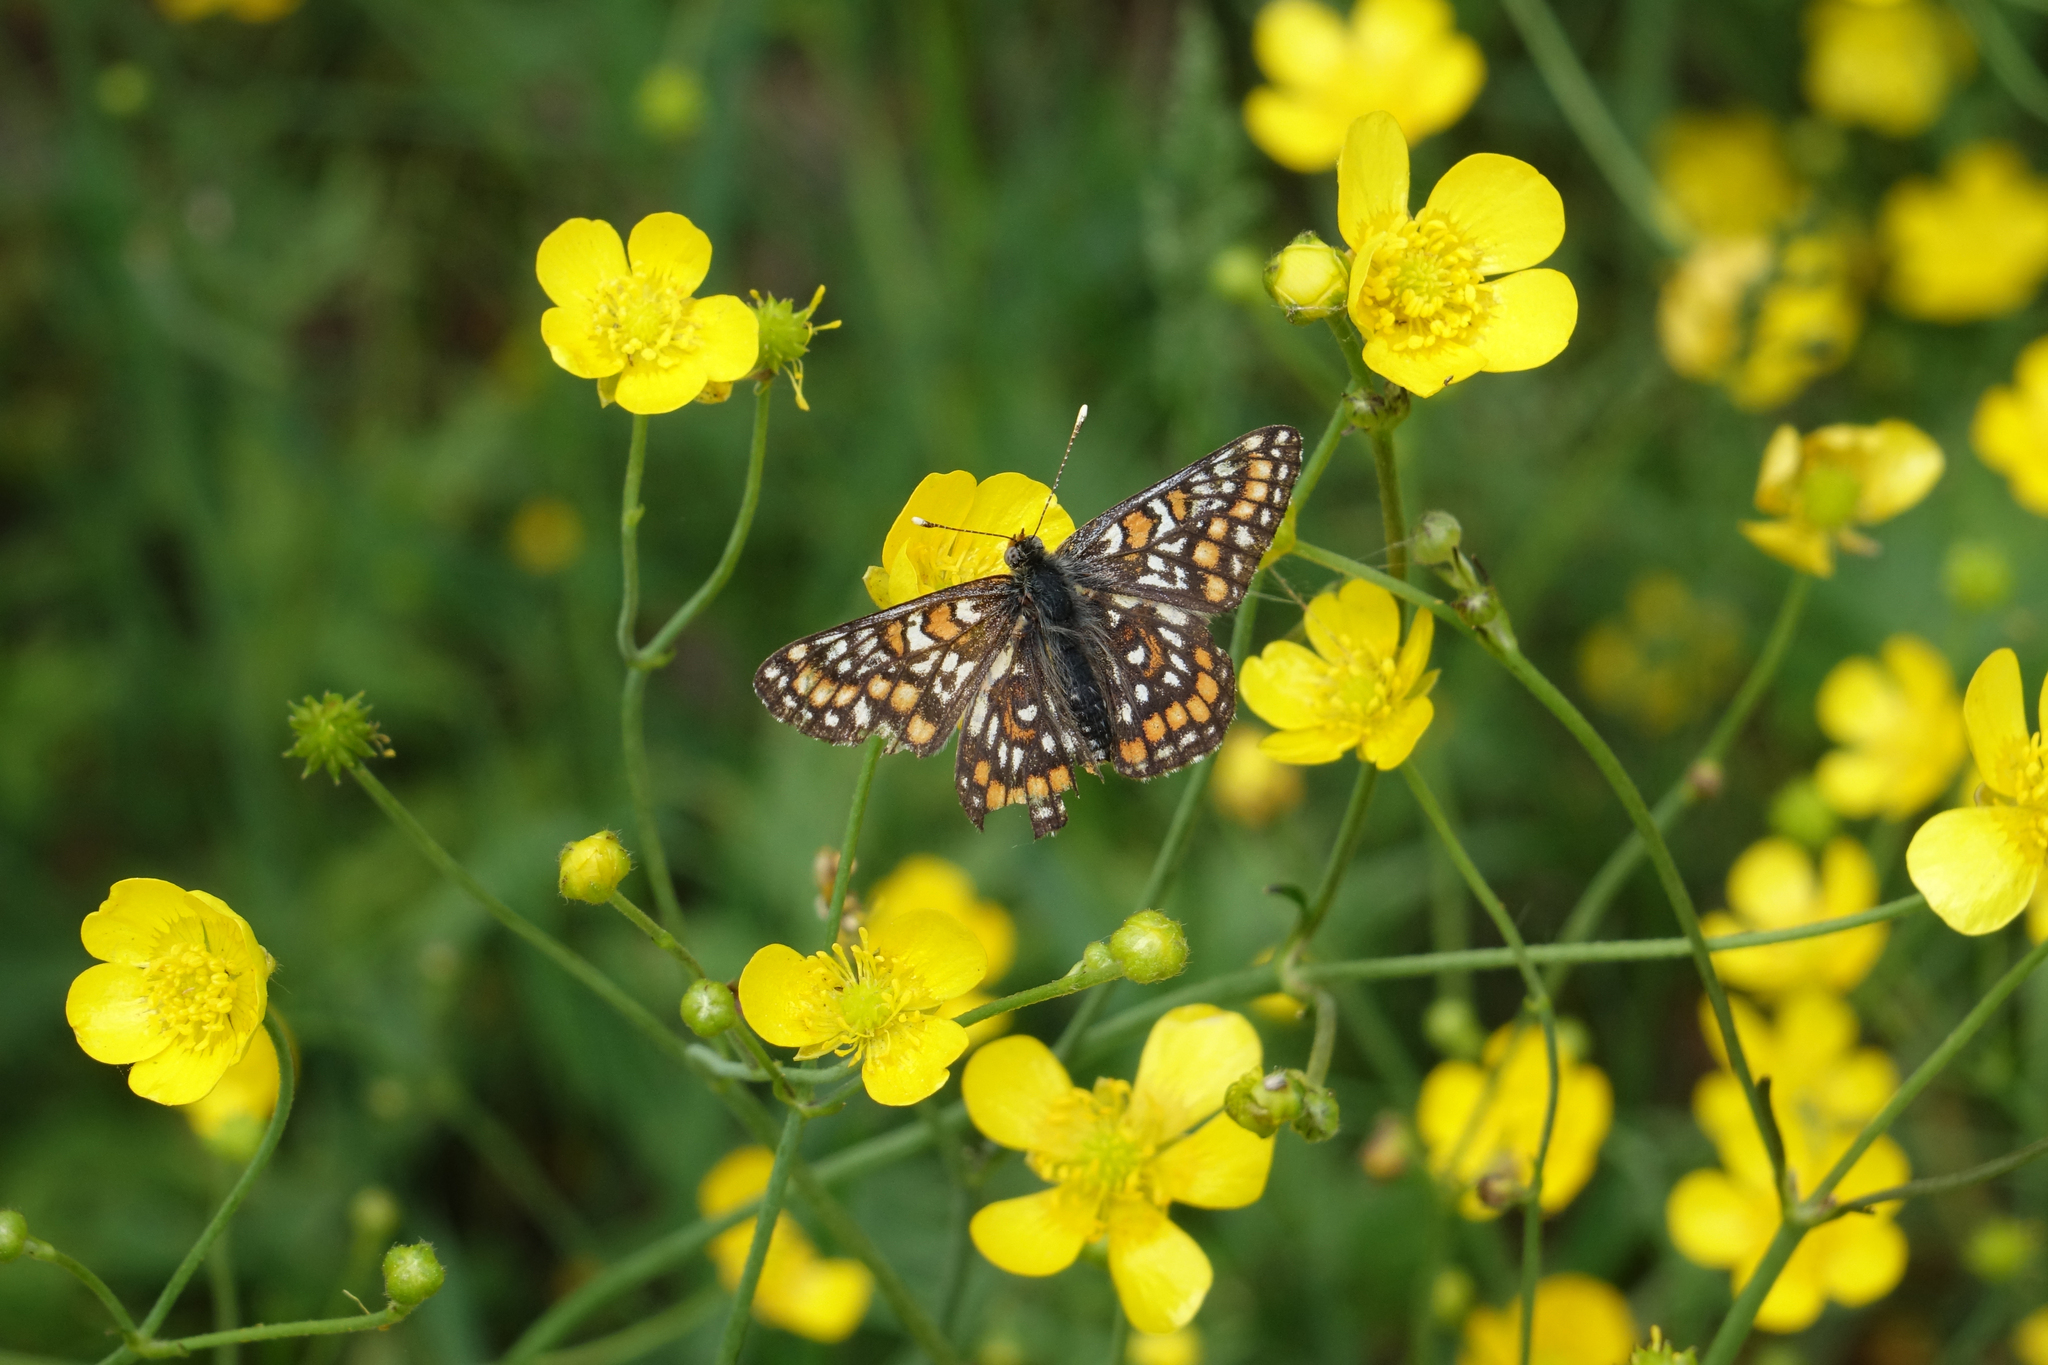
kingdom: Animalia
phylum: Arthropoda
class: Insecta
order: Lepidoptera
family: Nymphalidae
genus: Euphydryas
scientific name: Euphydryas maturna
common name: Scarce fritillary
